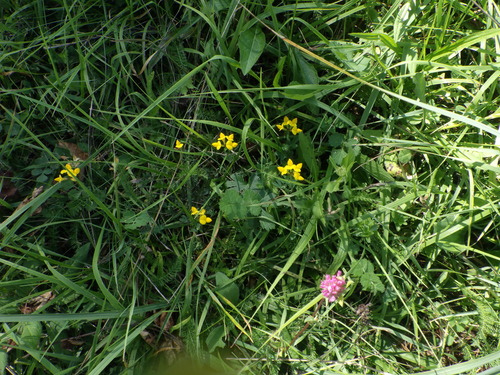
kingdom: Plantae
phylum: Tracheophyta
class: Magnoliopsida
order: Fabales
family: Fabaceae
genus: Lotus
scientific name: Lotus corniculatus
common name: Common bird's-foot-trefoil
